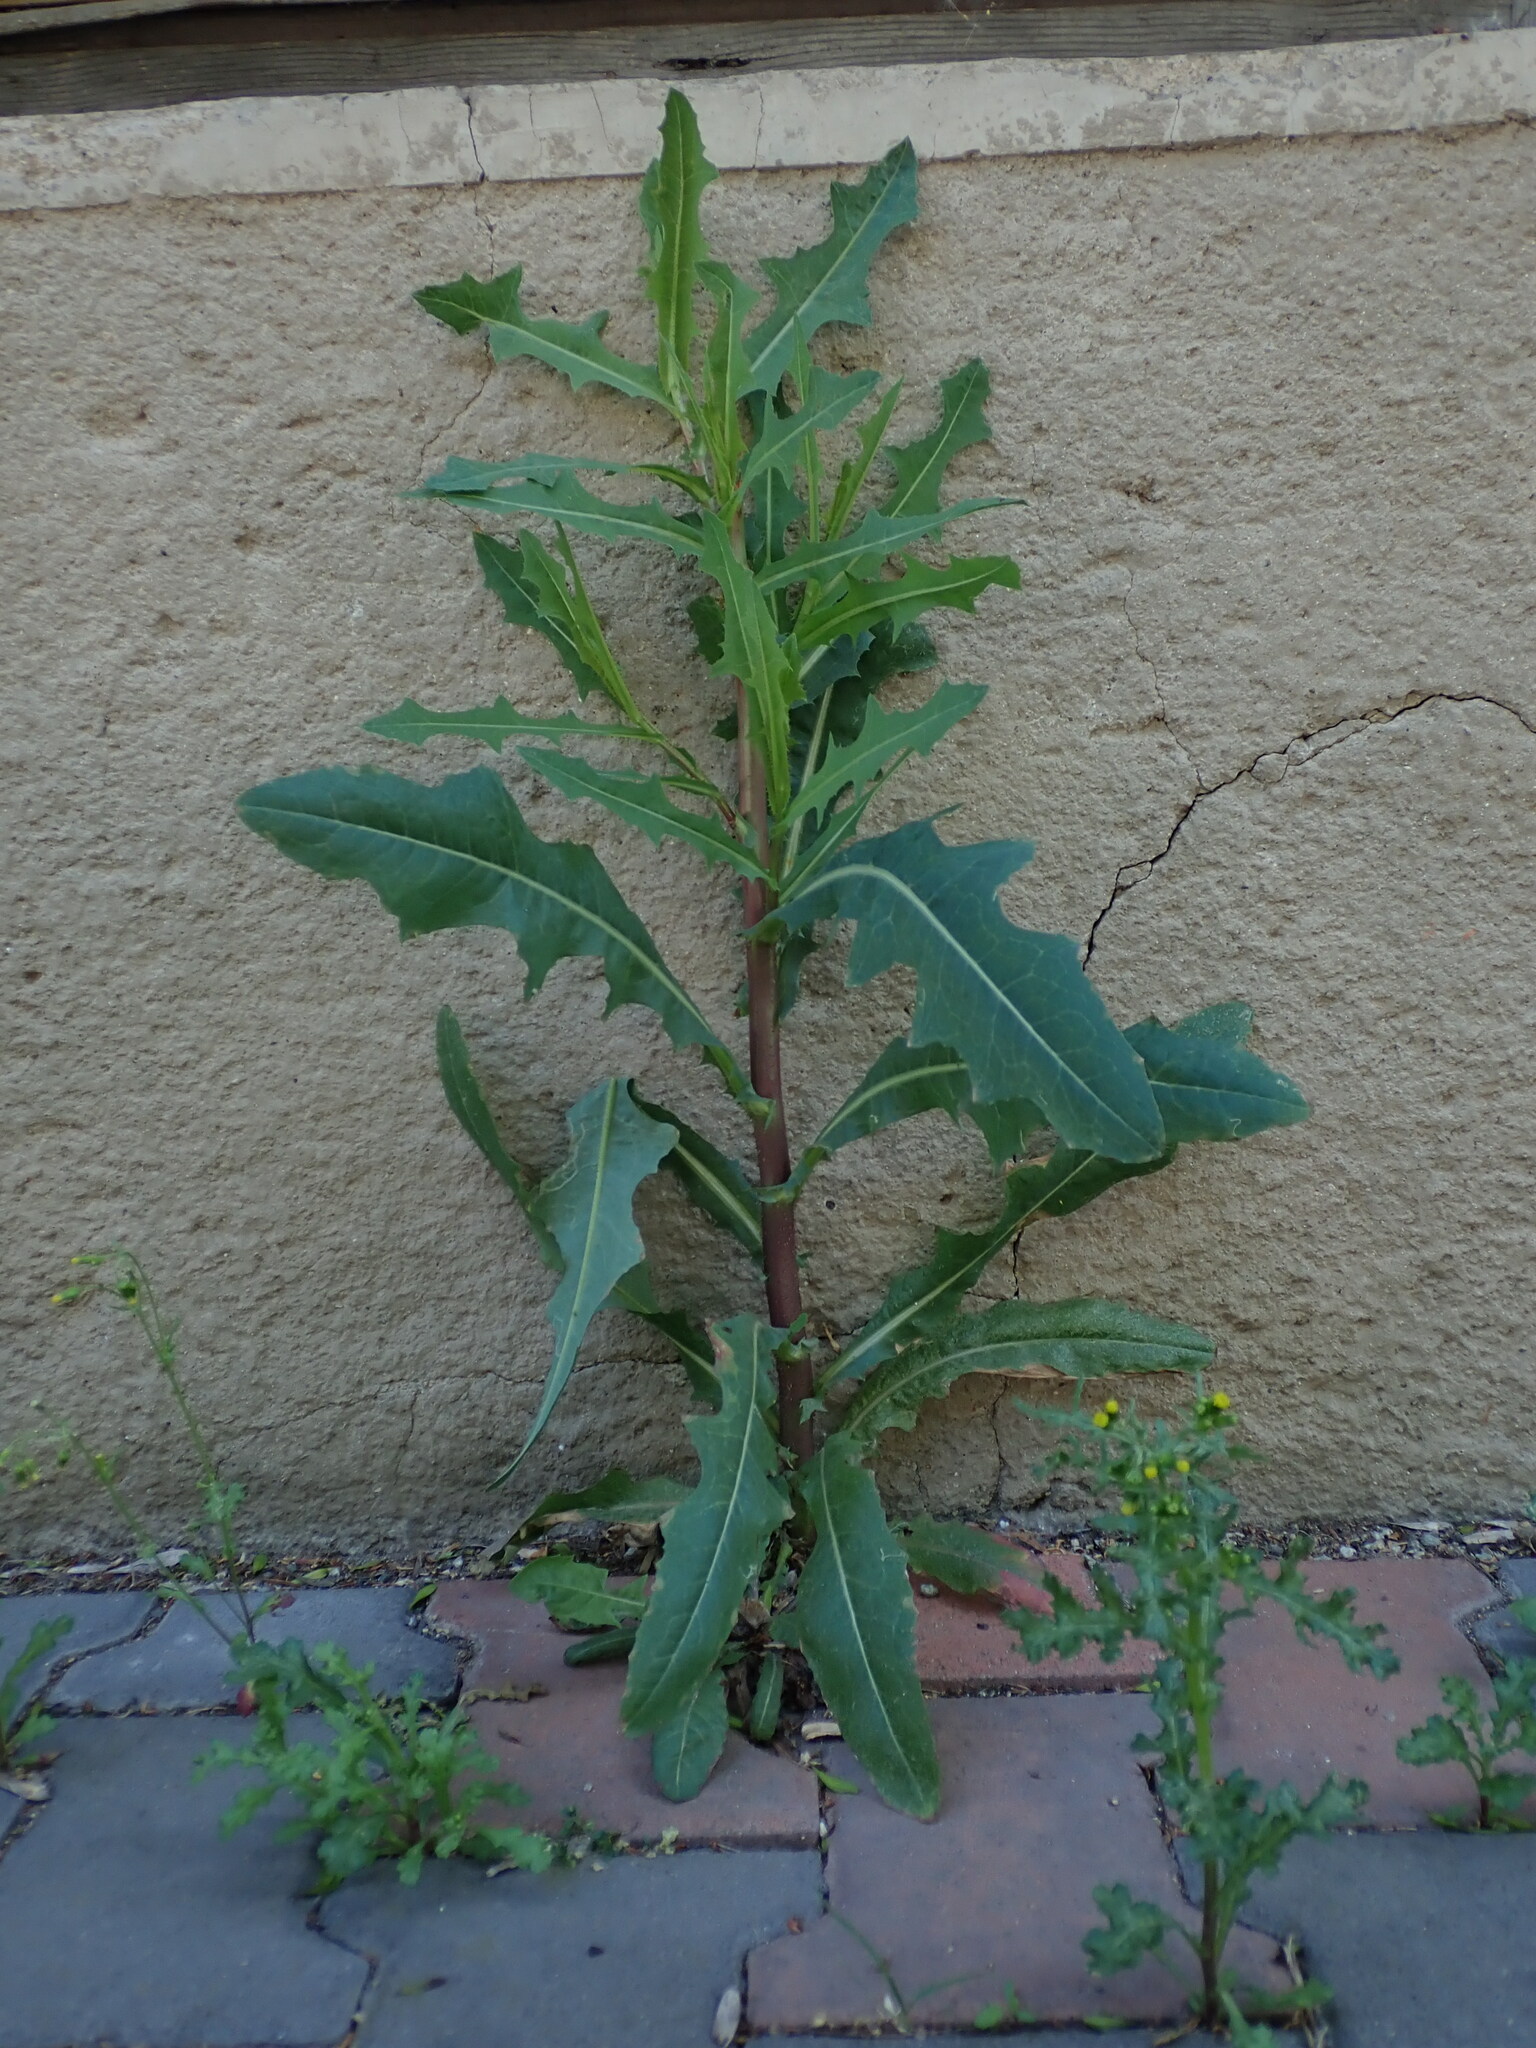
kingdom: Plantae
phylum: Tracheophyta
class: Magnoliopsida
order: Asterales
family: Asteraceae
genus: Lactuca
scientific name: Lactuca serriola
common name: Prickly lettuce
